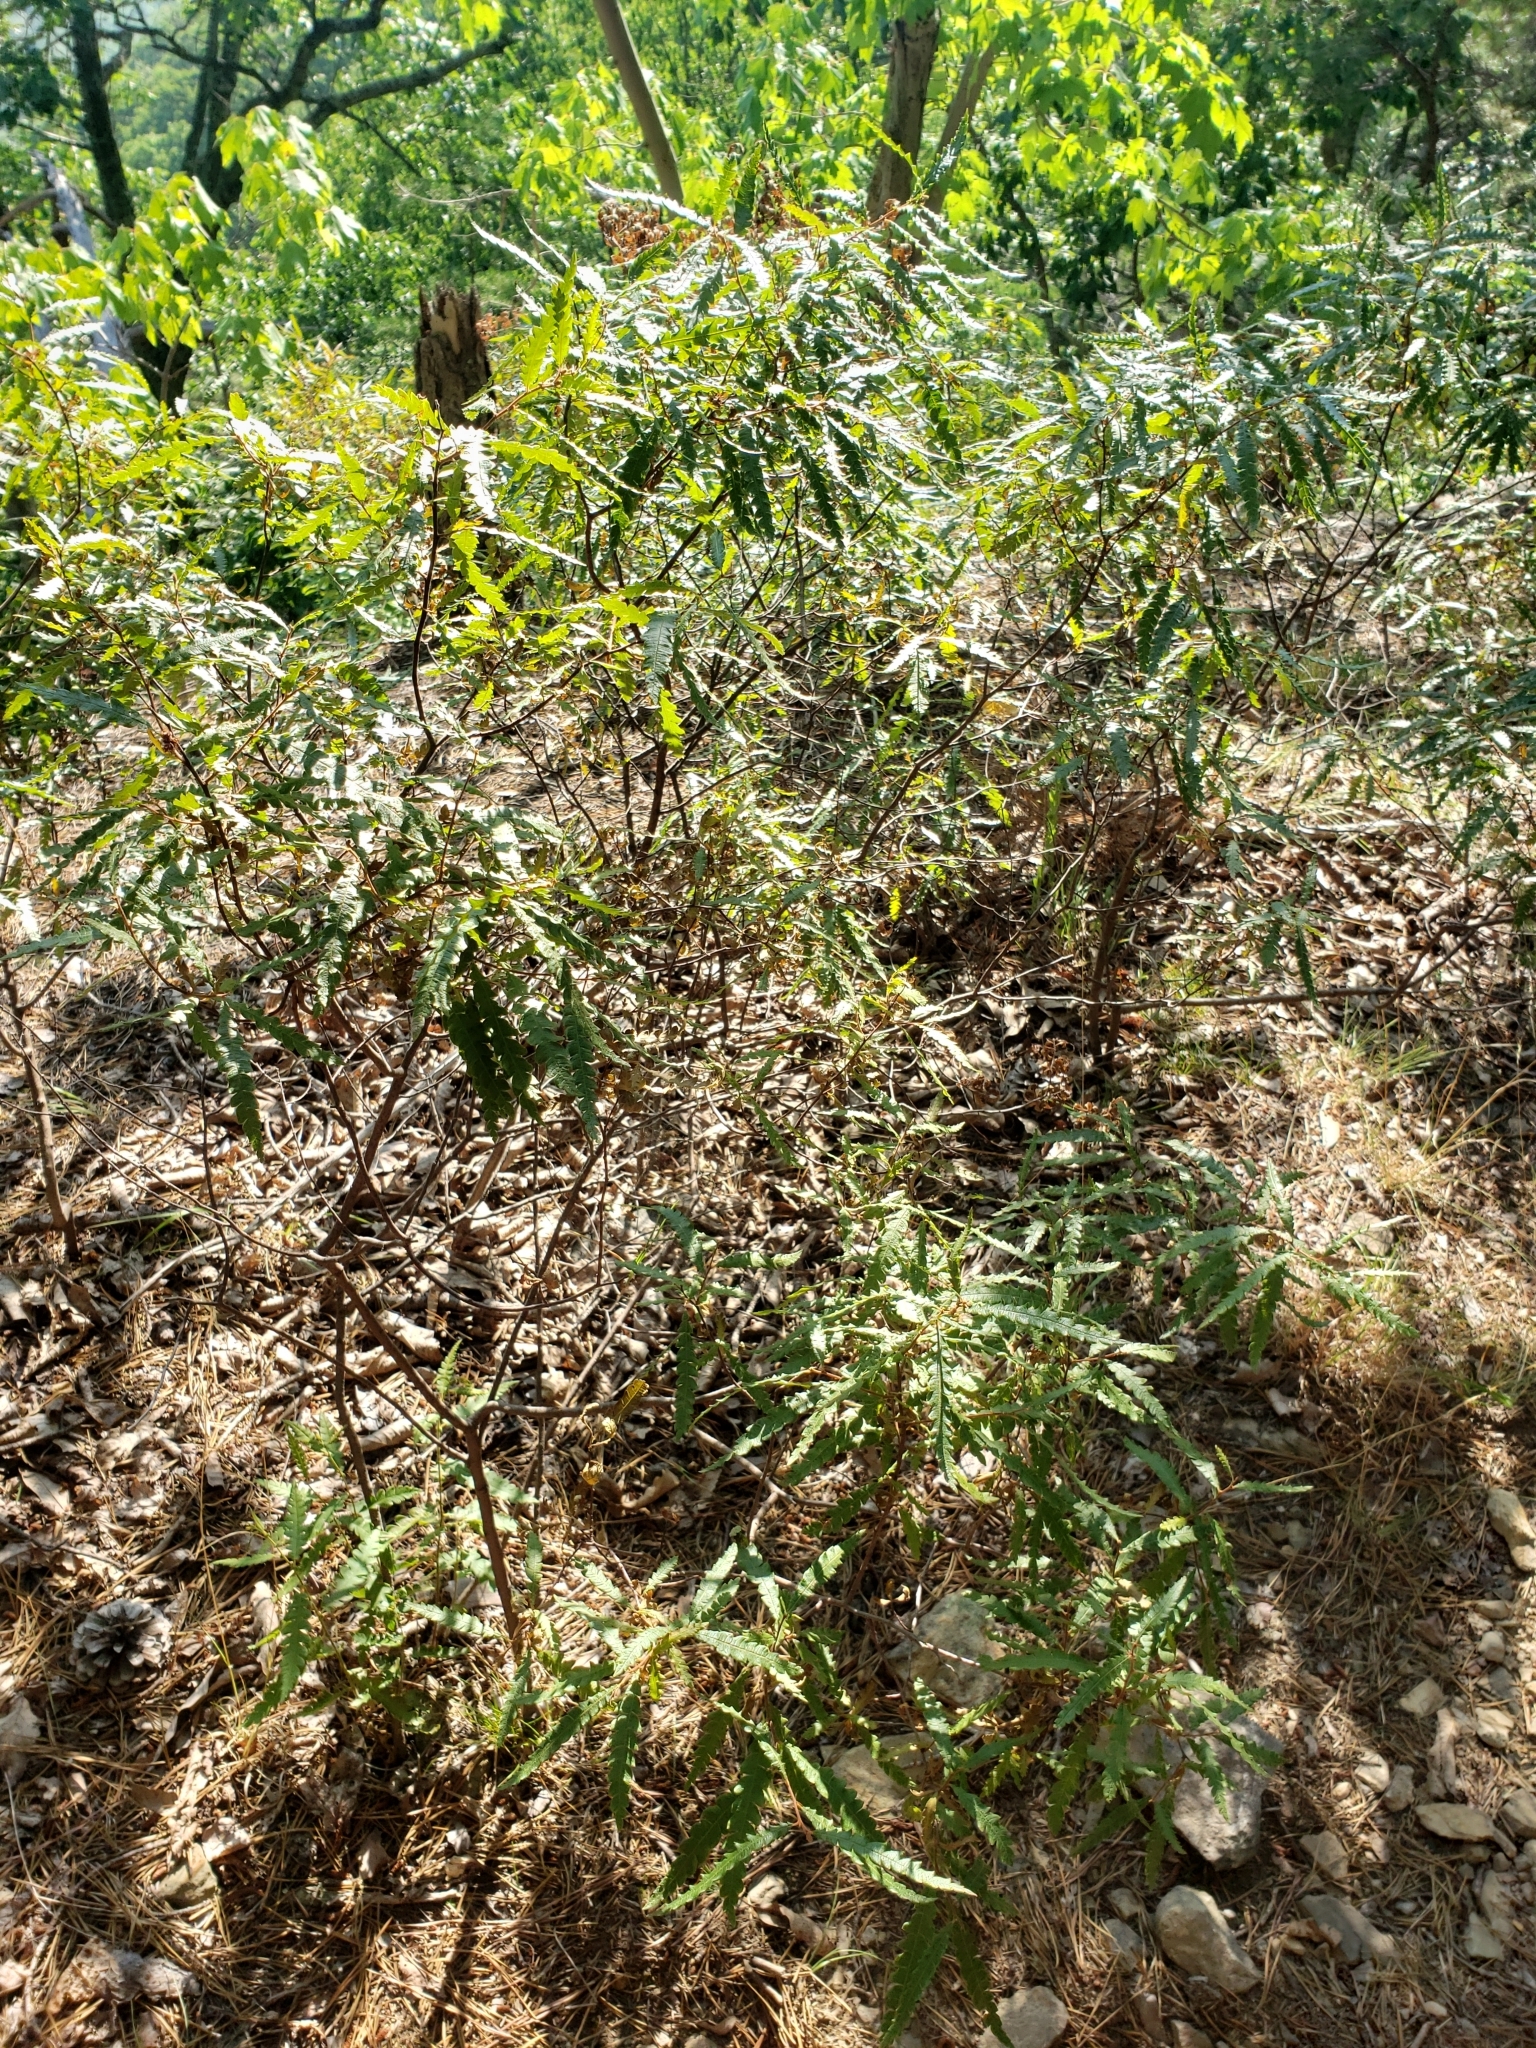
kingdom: Plantae
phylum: Tracheophyta
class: Magnoliopsida
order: Fagales
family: Myricaceae
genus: Comptonia
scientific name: Comptonia peregrina
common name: Sweet-fern
